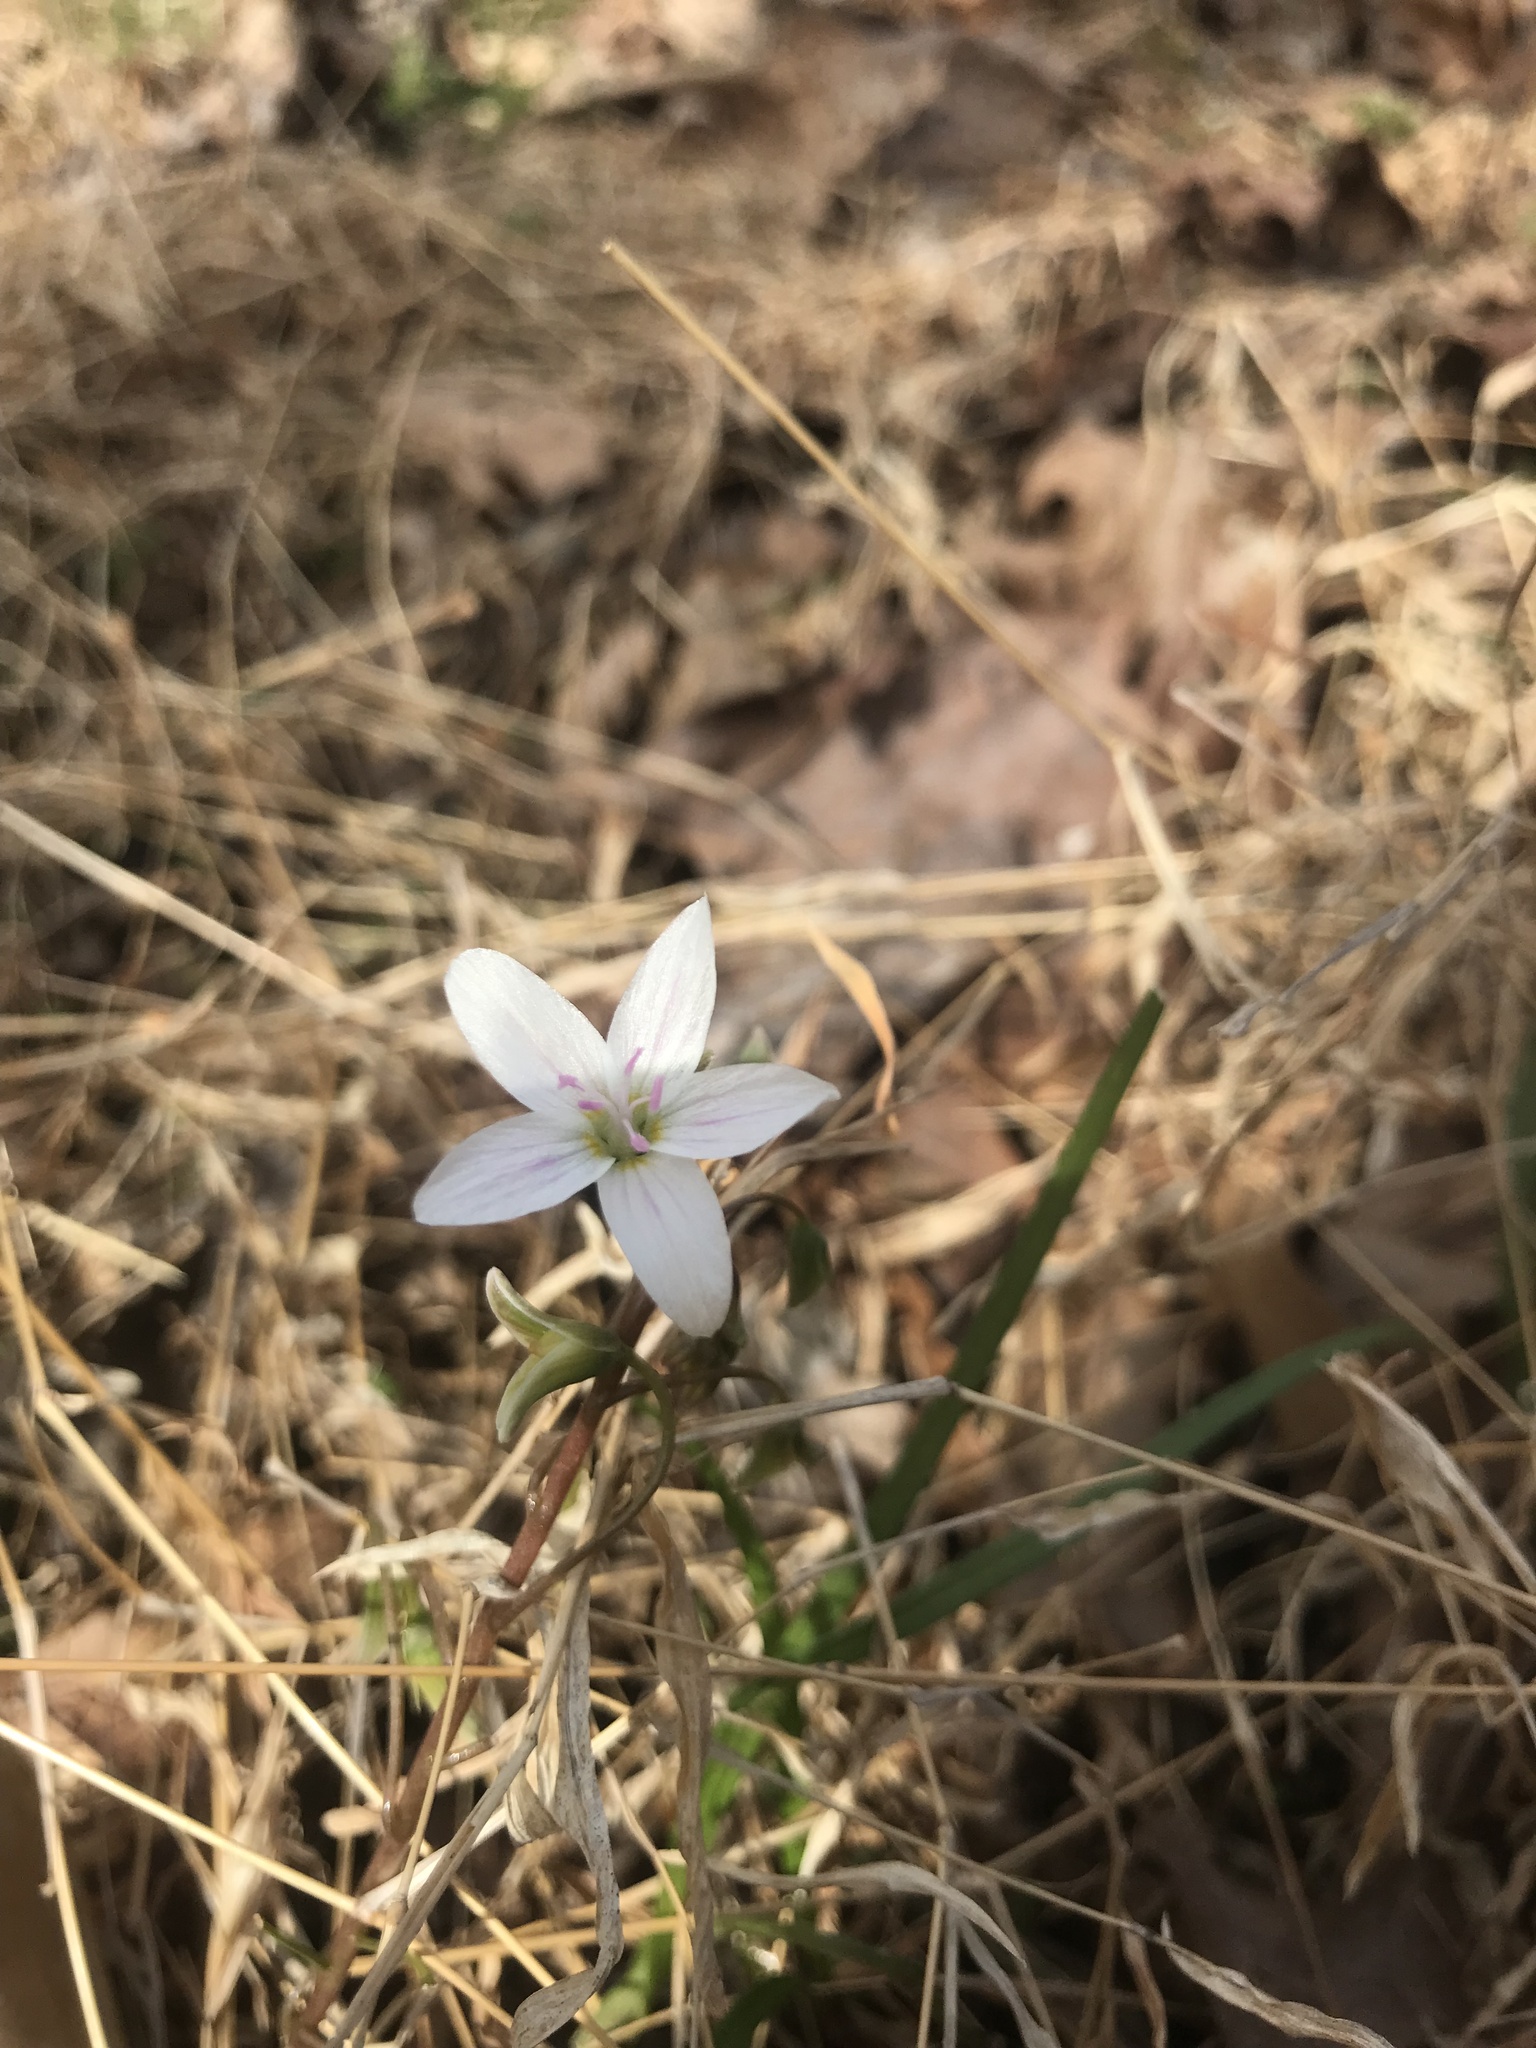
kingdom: Plantae
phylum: Tracheophyta
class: Magnoliopsida
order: Caryophyllales
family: Montiaceae
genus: Claytonia
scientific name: Claytonia virginica
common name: Virginia springbeauty
